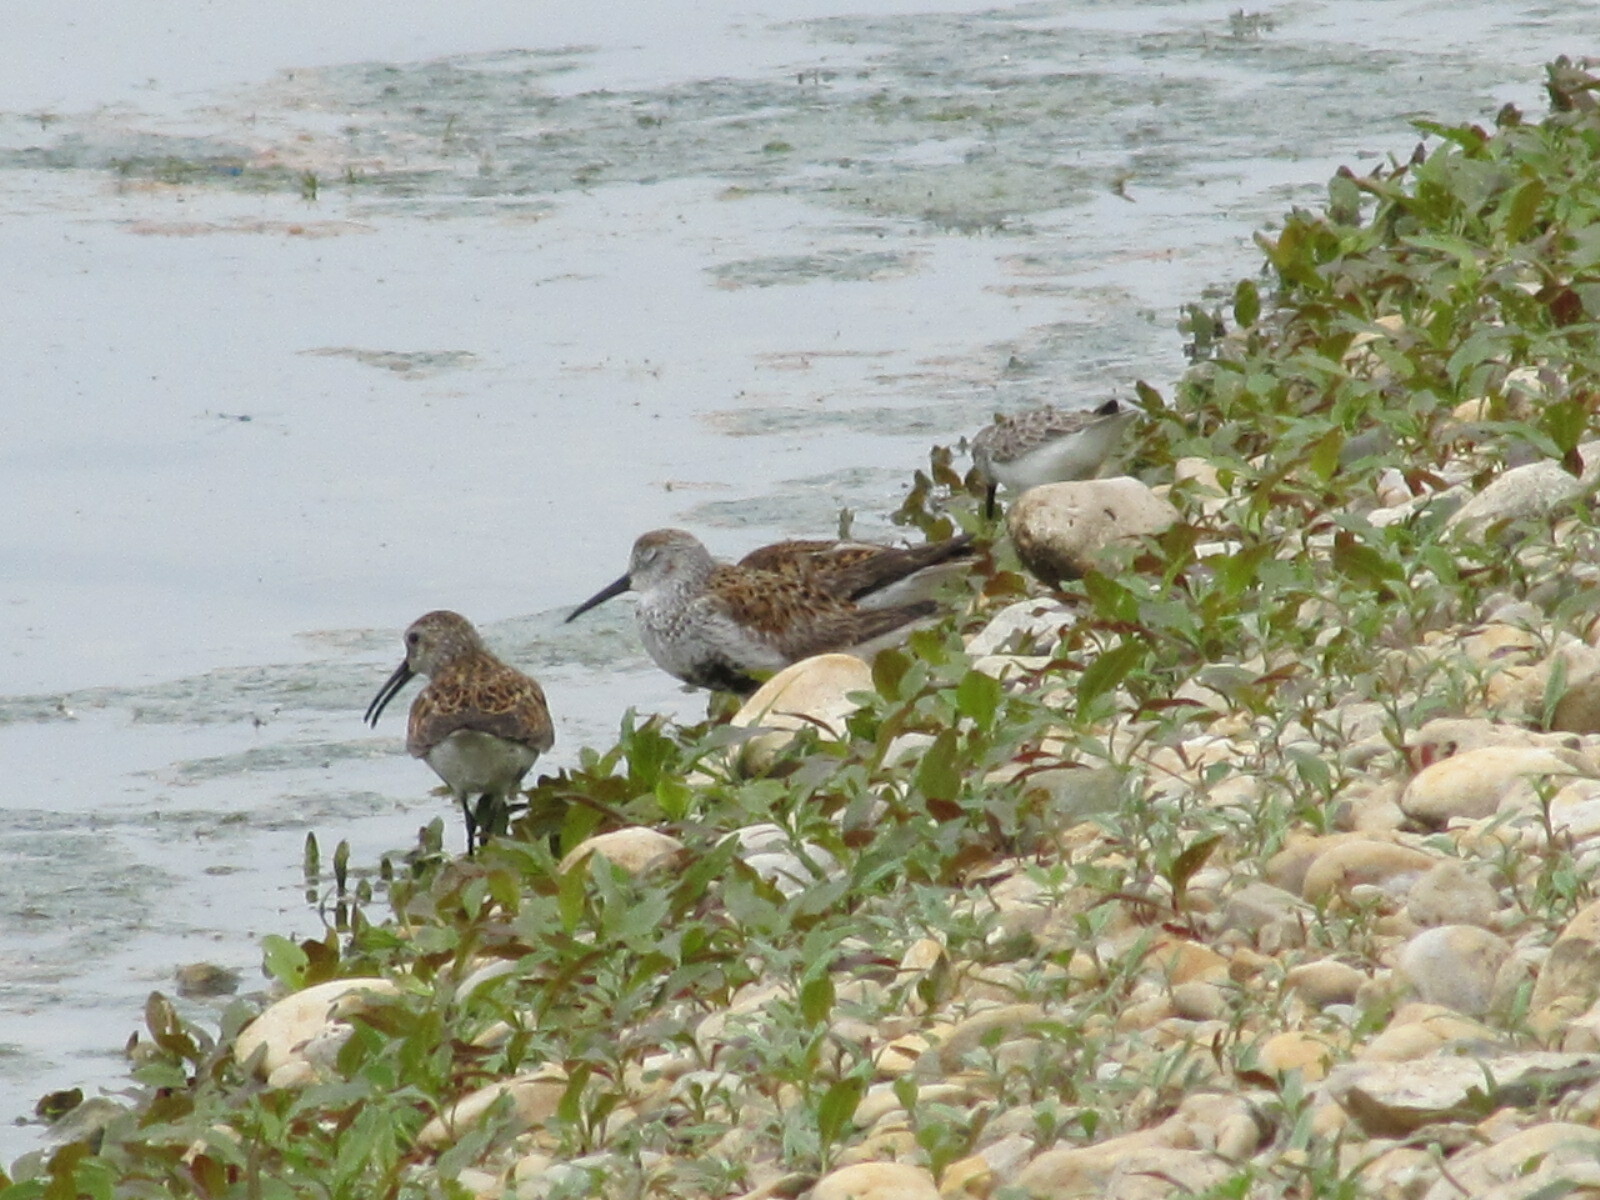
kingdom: Animalia
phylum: Chordata
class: Aves
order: Charadriiformes
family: Scolopacidae
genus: Calidris
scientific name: Calidris alpina
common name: Dunlin
